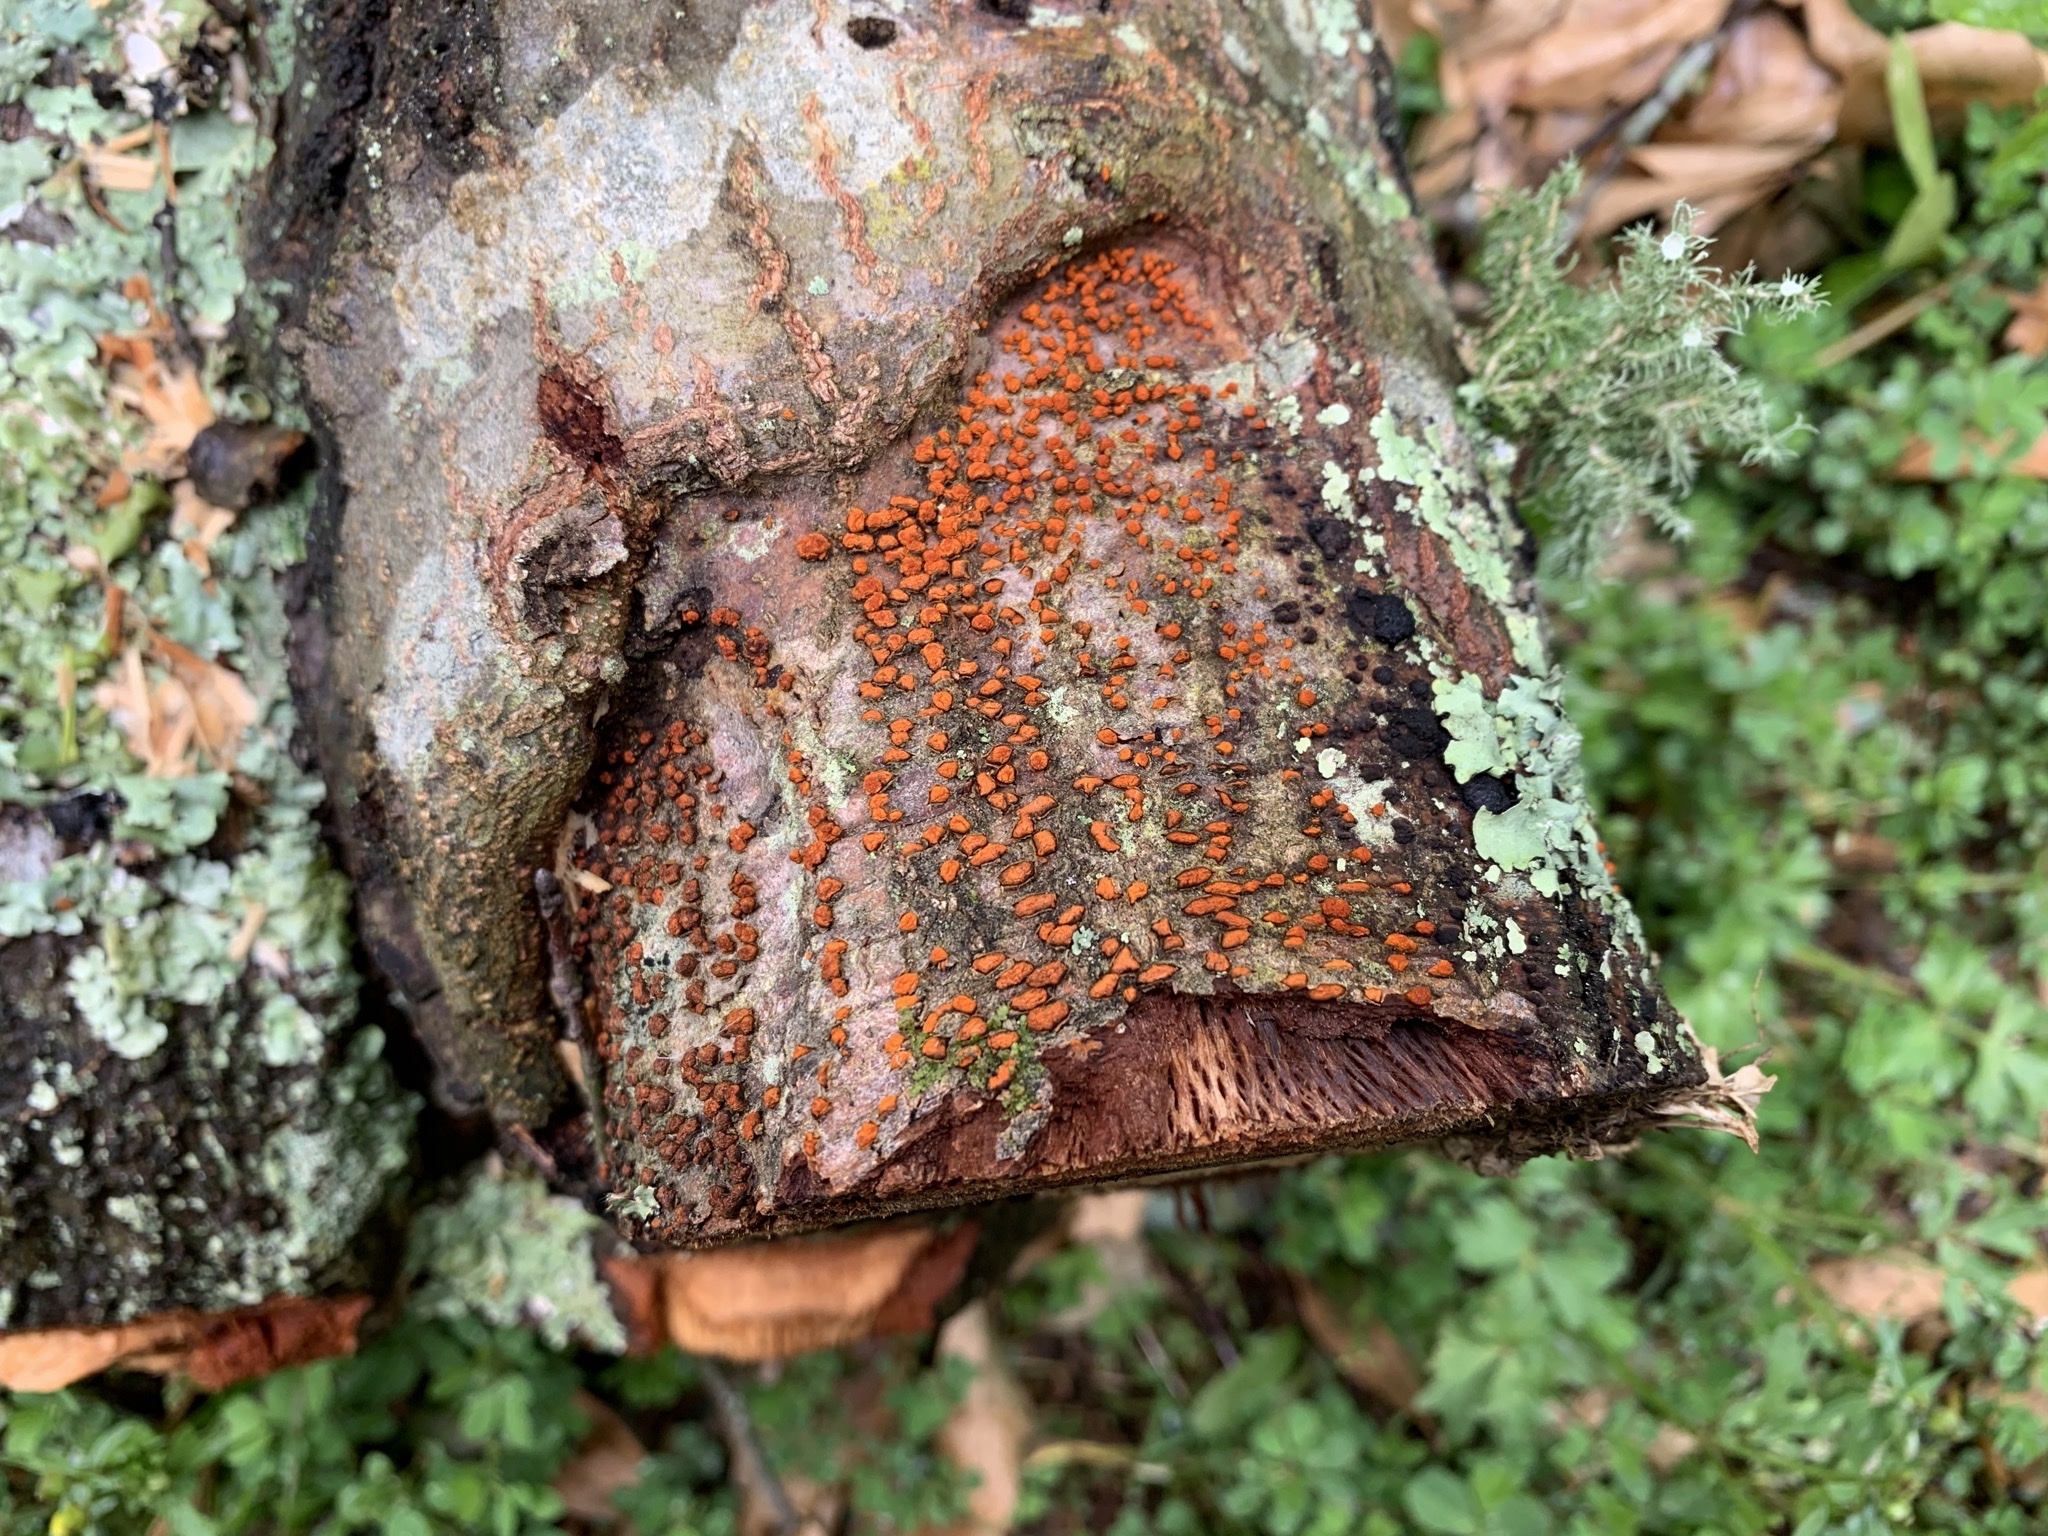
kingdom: Fungi
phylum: Ascomycota
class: Sordariomycetes
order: Diaporthales
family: Cryphonectriaceae
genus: Amphilogia
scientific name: Amphilogia gyrosa
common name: Orange hobnail canker
